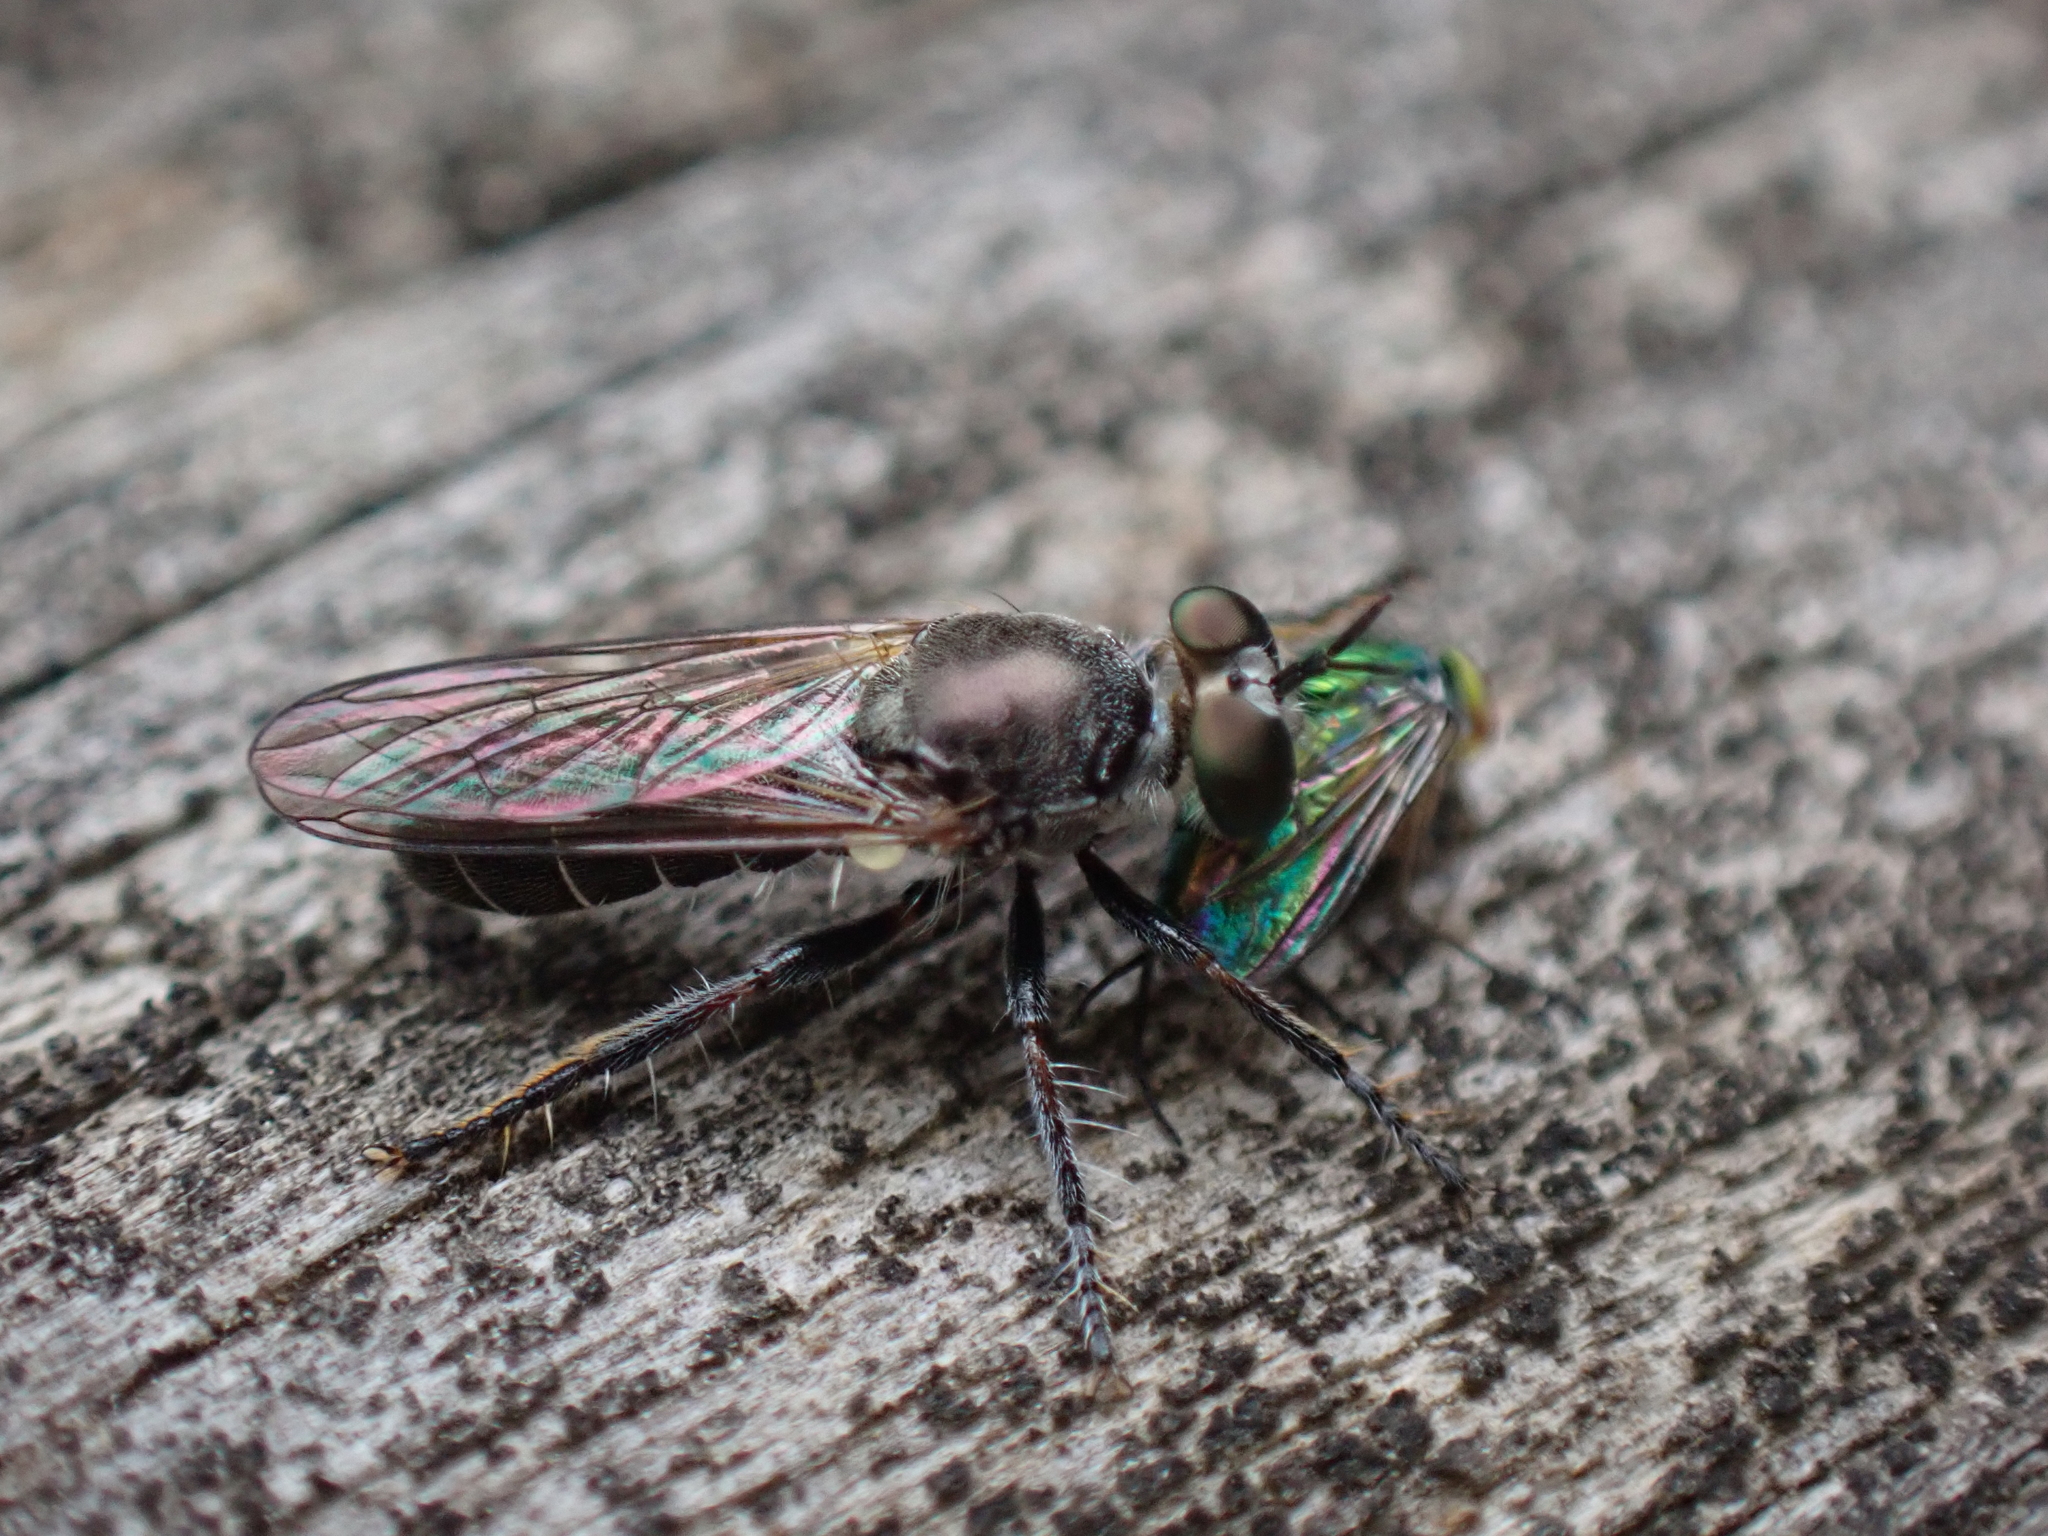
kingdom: Animalia
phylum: Arthropoda
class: Insecta
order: Diptera
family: Asilidae
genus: Atomosia
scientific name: Atomosia puella
